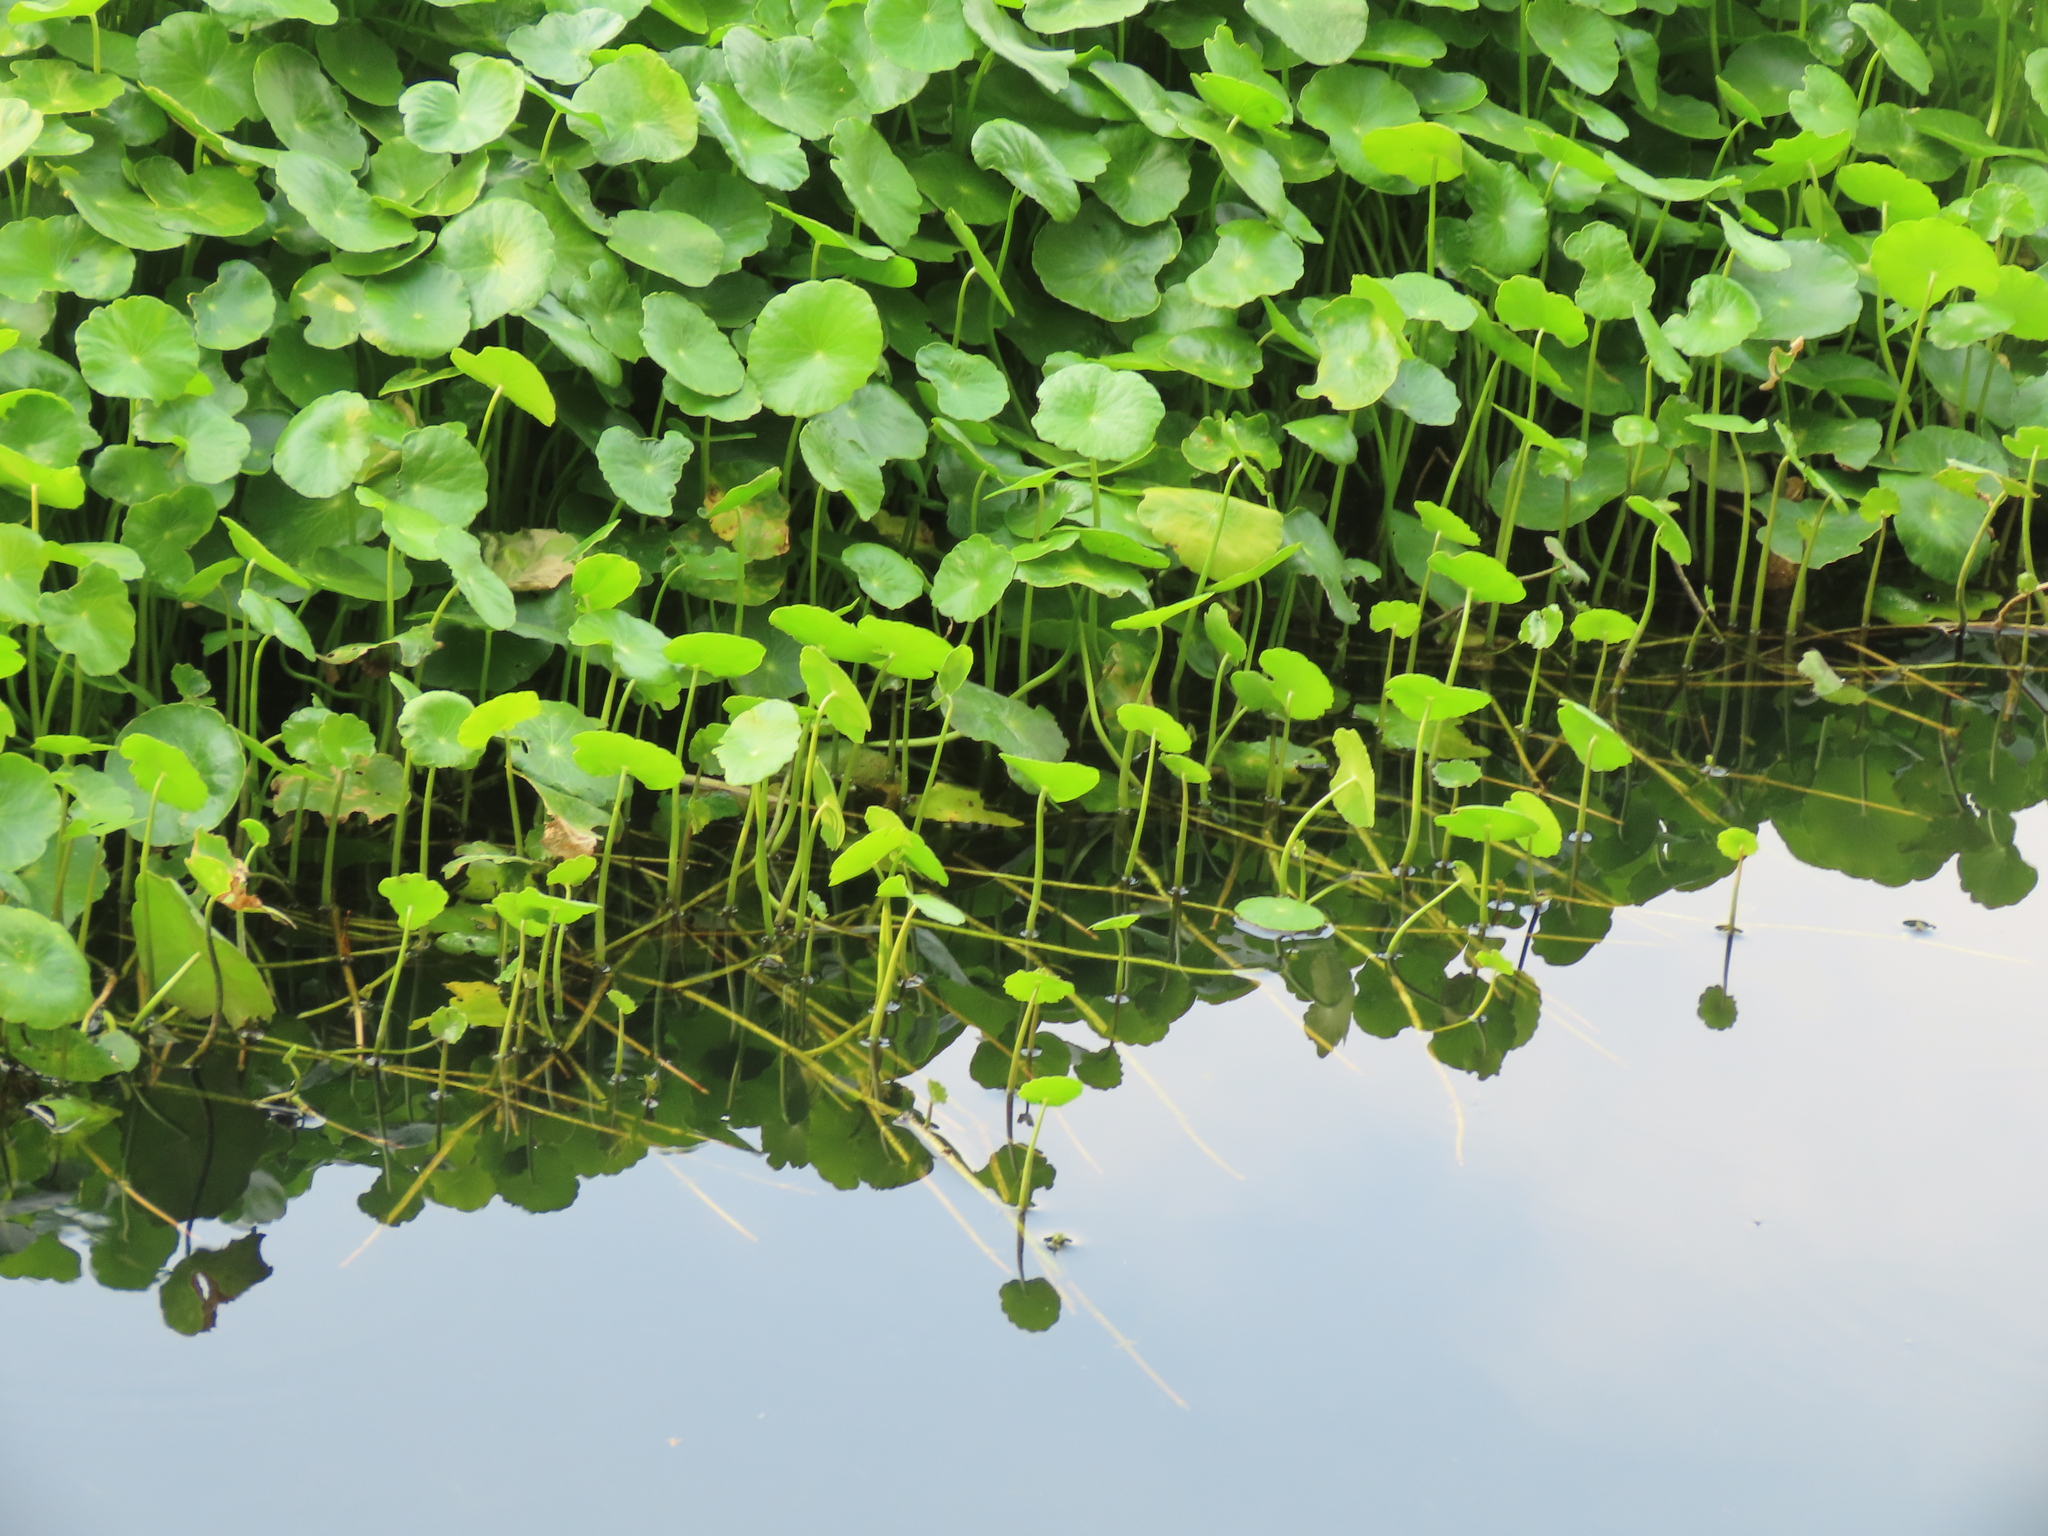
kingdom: Plantae
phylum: Tracheophyta
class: Magnoliopsida
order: Apiales
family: Araliaceae
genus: Hydrocotyle
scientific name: Hydrocotyle verticillata
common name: Whorled marshpennywort
